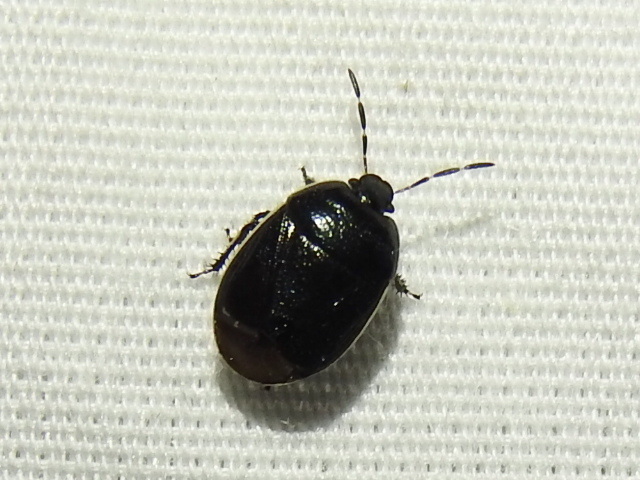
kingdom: Animalia
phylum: Arthropoda
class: Insecta
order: Hemiptera
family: Cydnidae
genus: Sehirus
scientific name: Sehirus cinctus
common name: White-margined burrower bug
